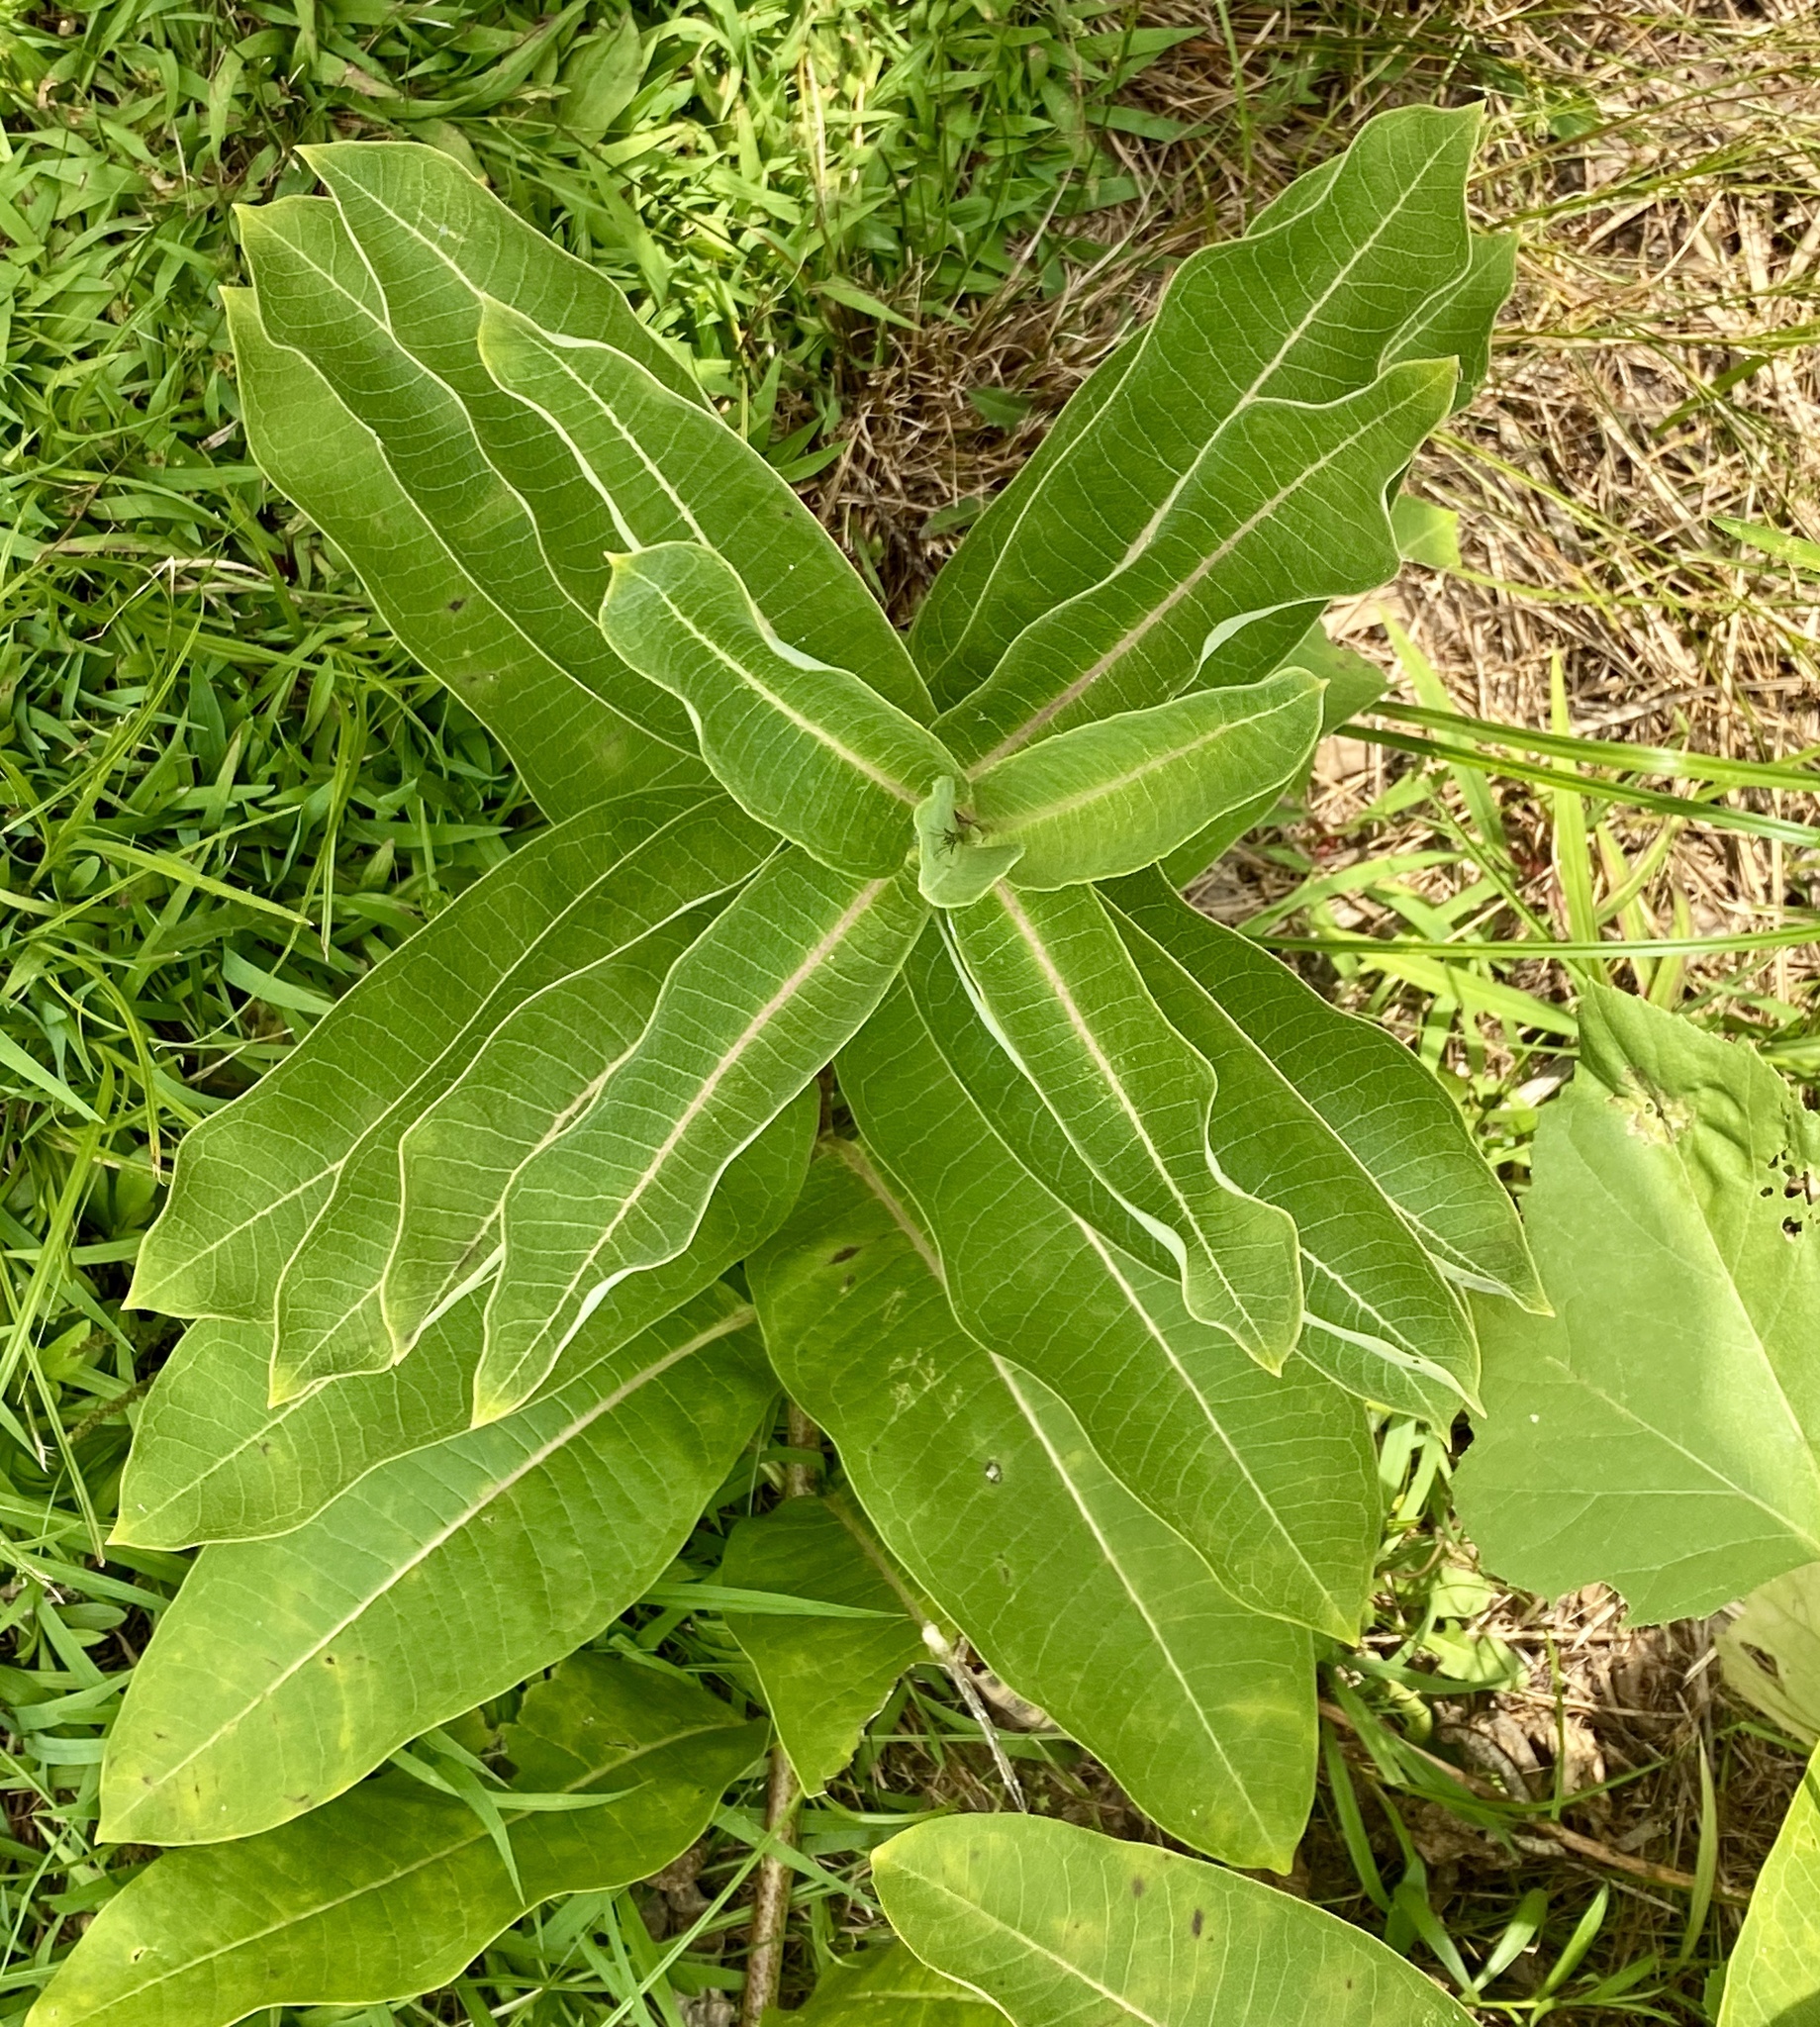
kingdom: Plantae
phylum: Tracheophyta
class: Magnoliopsida
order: Gentianales
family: Apocynaceae
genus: Asclepias
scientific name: Asclepias syriaca
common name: Common milkweed
